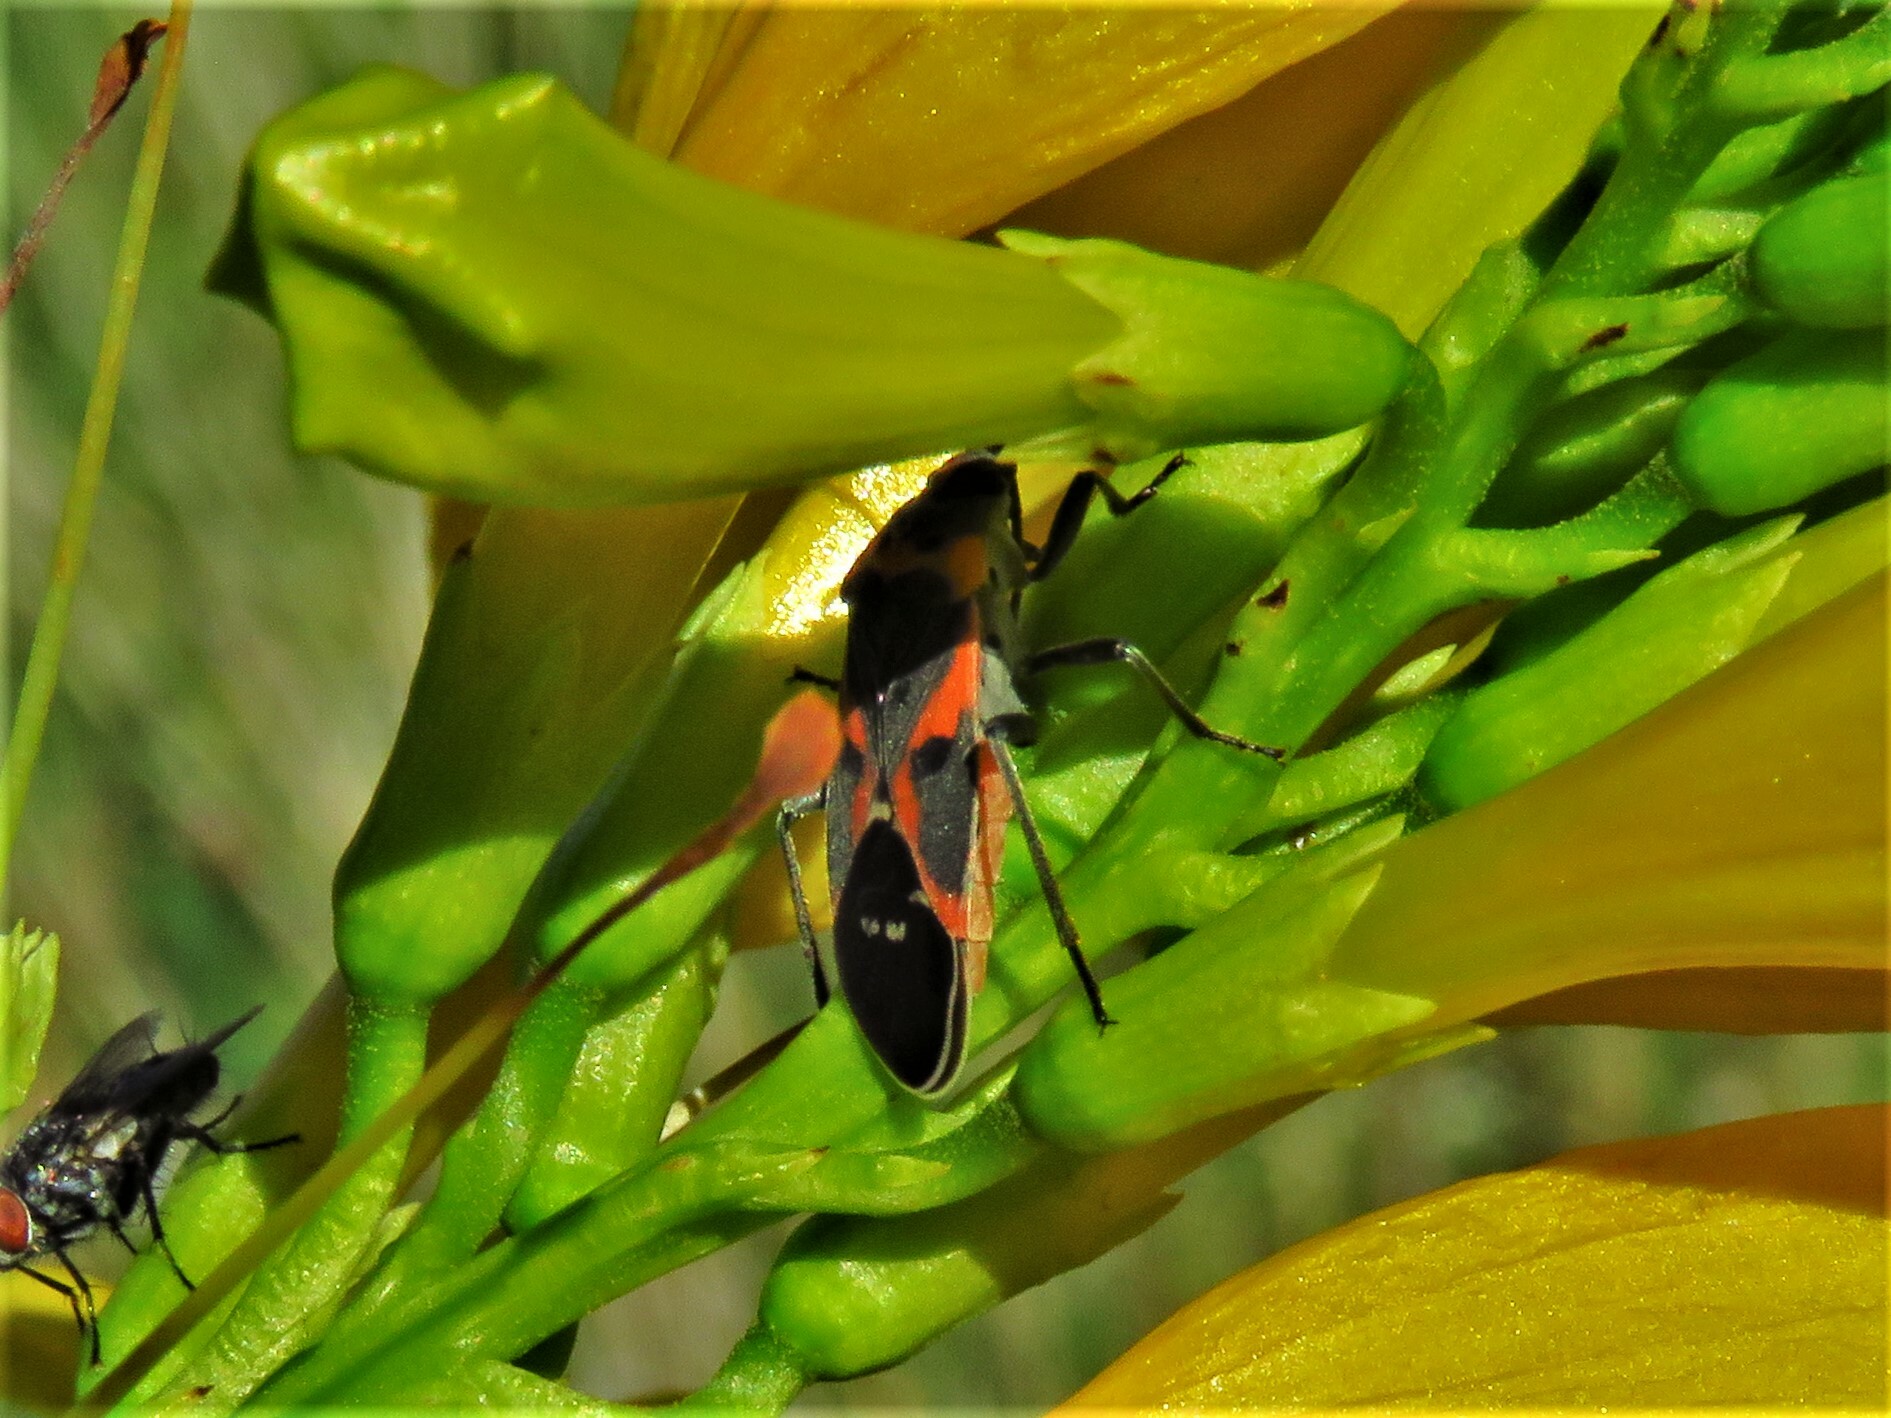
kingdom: Animalia
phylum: Arthropoda
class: Insecta
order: Hemiptera
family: Lygaeidae
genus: Lygaeus
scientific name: Lygaeus kalmii
